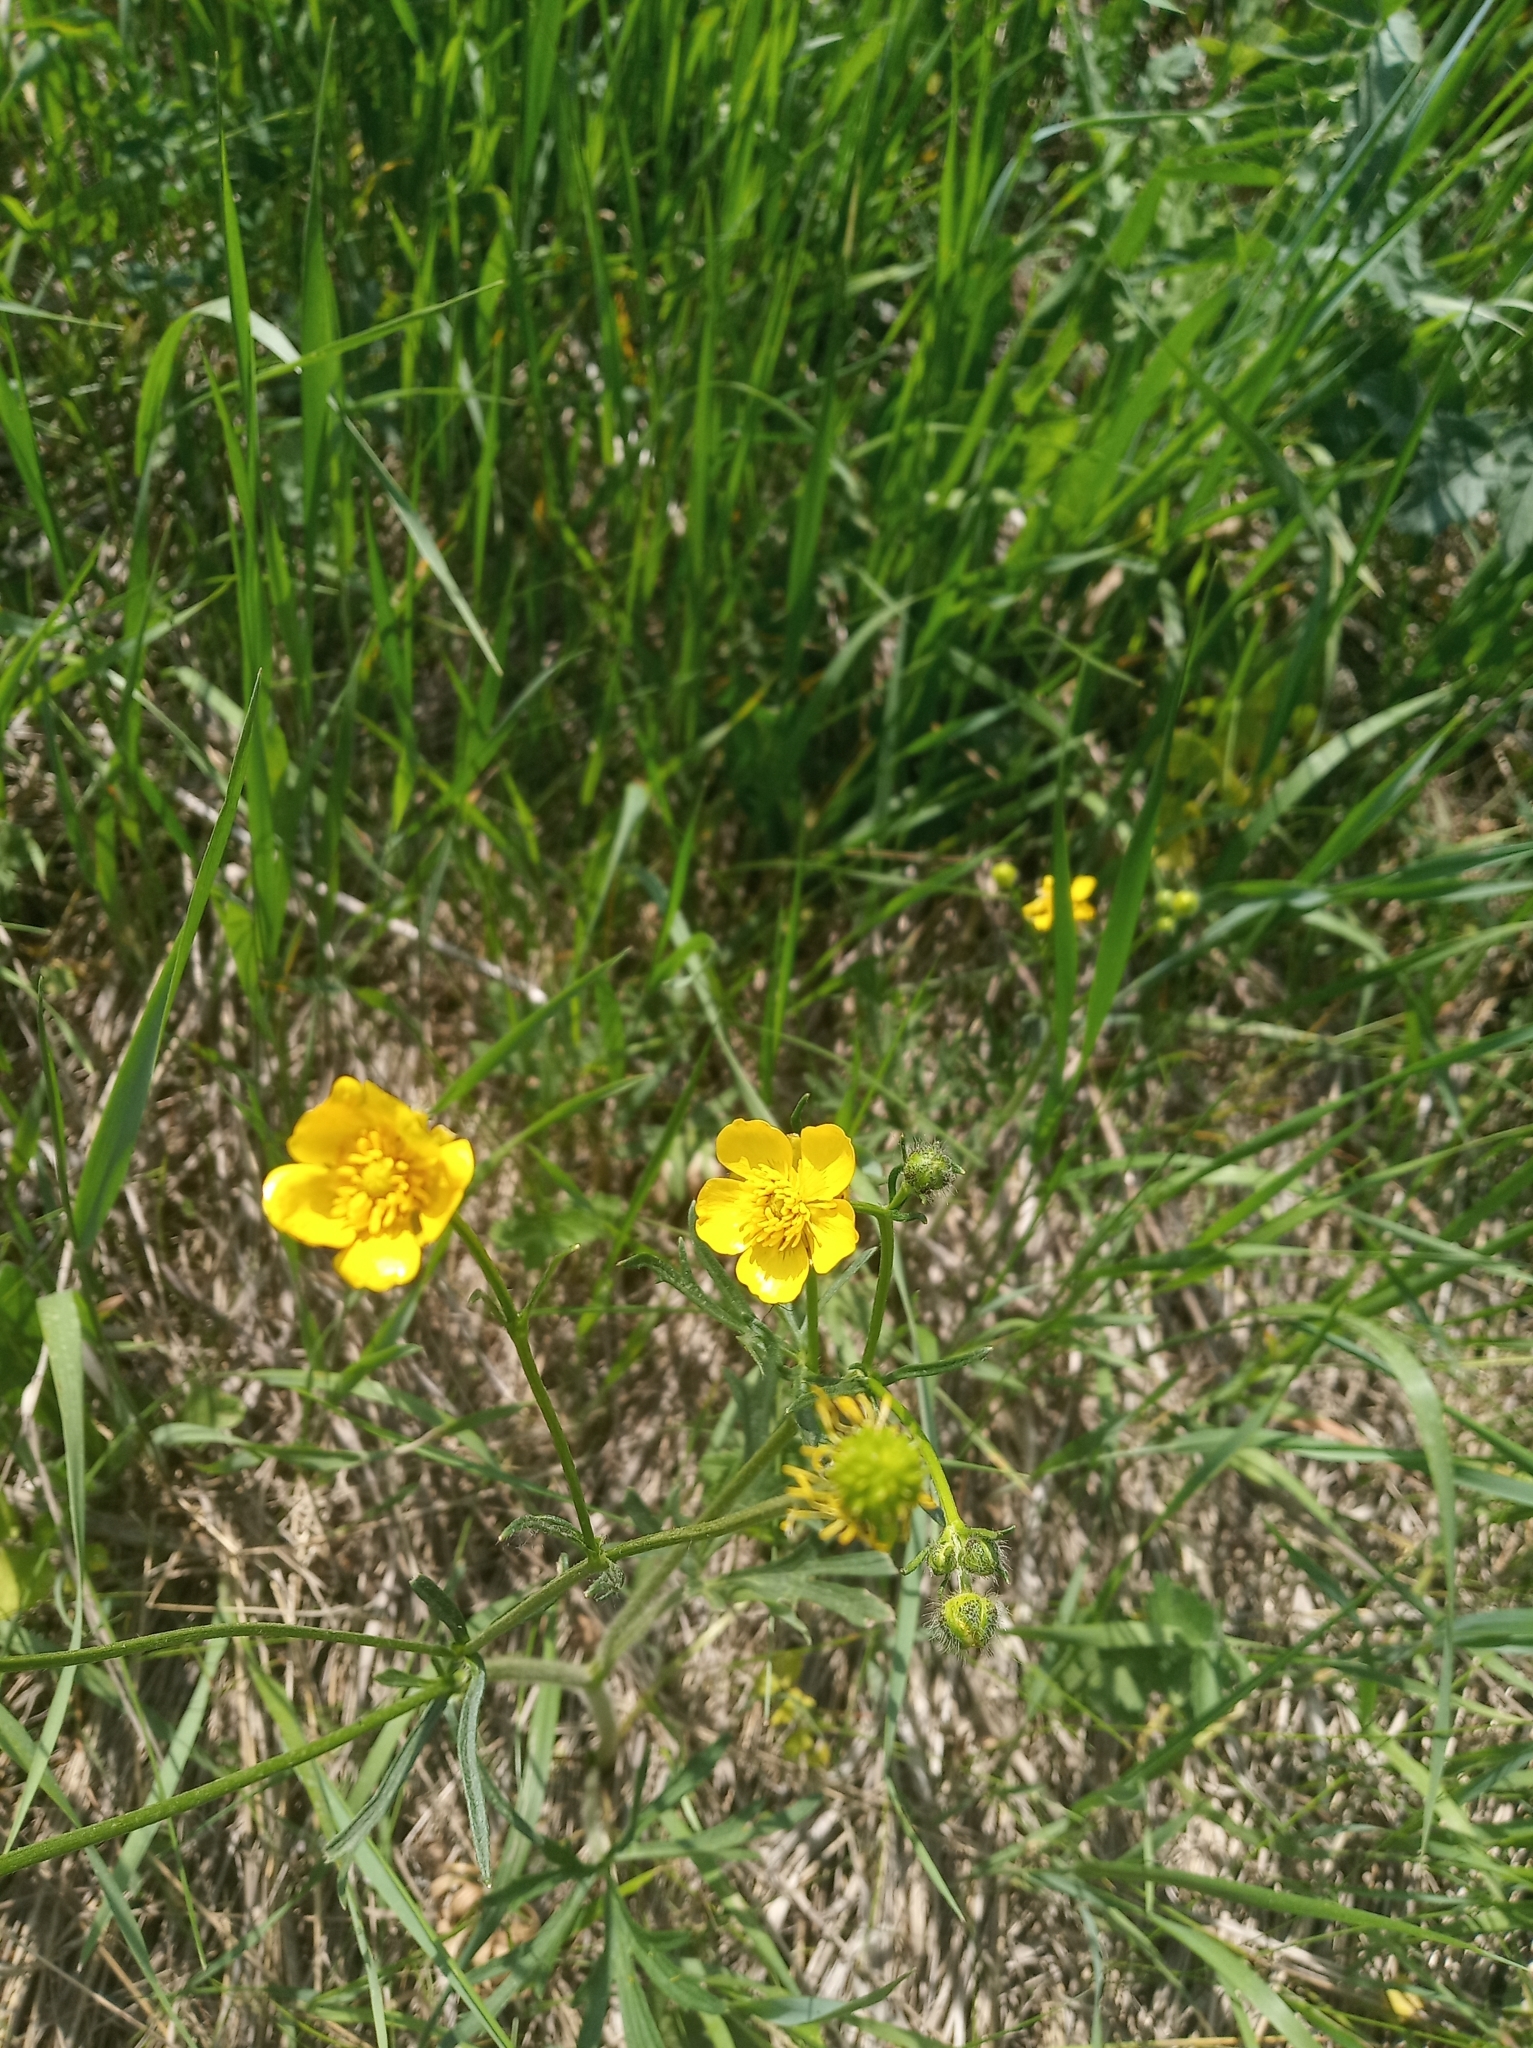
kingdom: Plantae
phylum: Tracheophyta
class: Magnoliopsida
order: Ranunculales
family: Ranunculaceae
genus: Ranunculus
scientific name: Ranunculus polyanthemos
